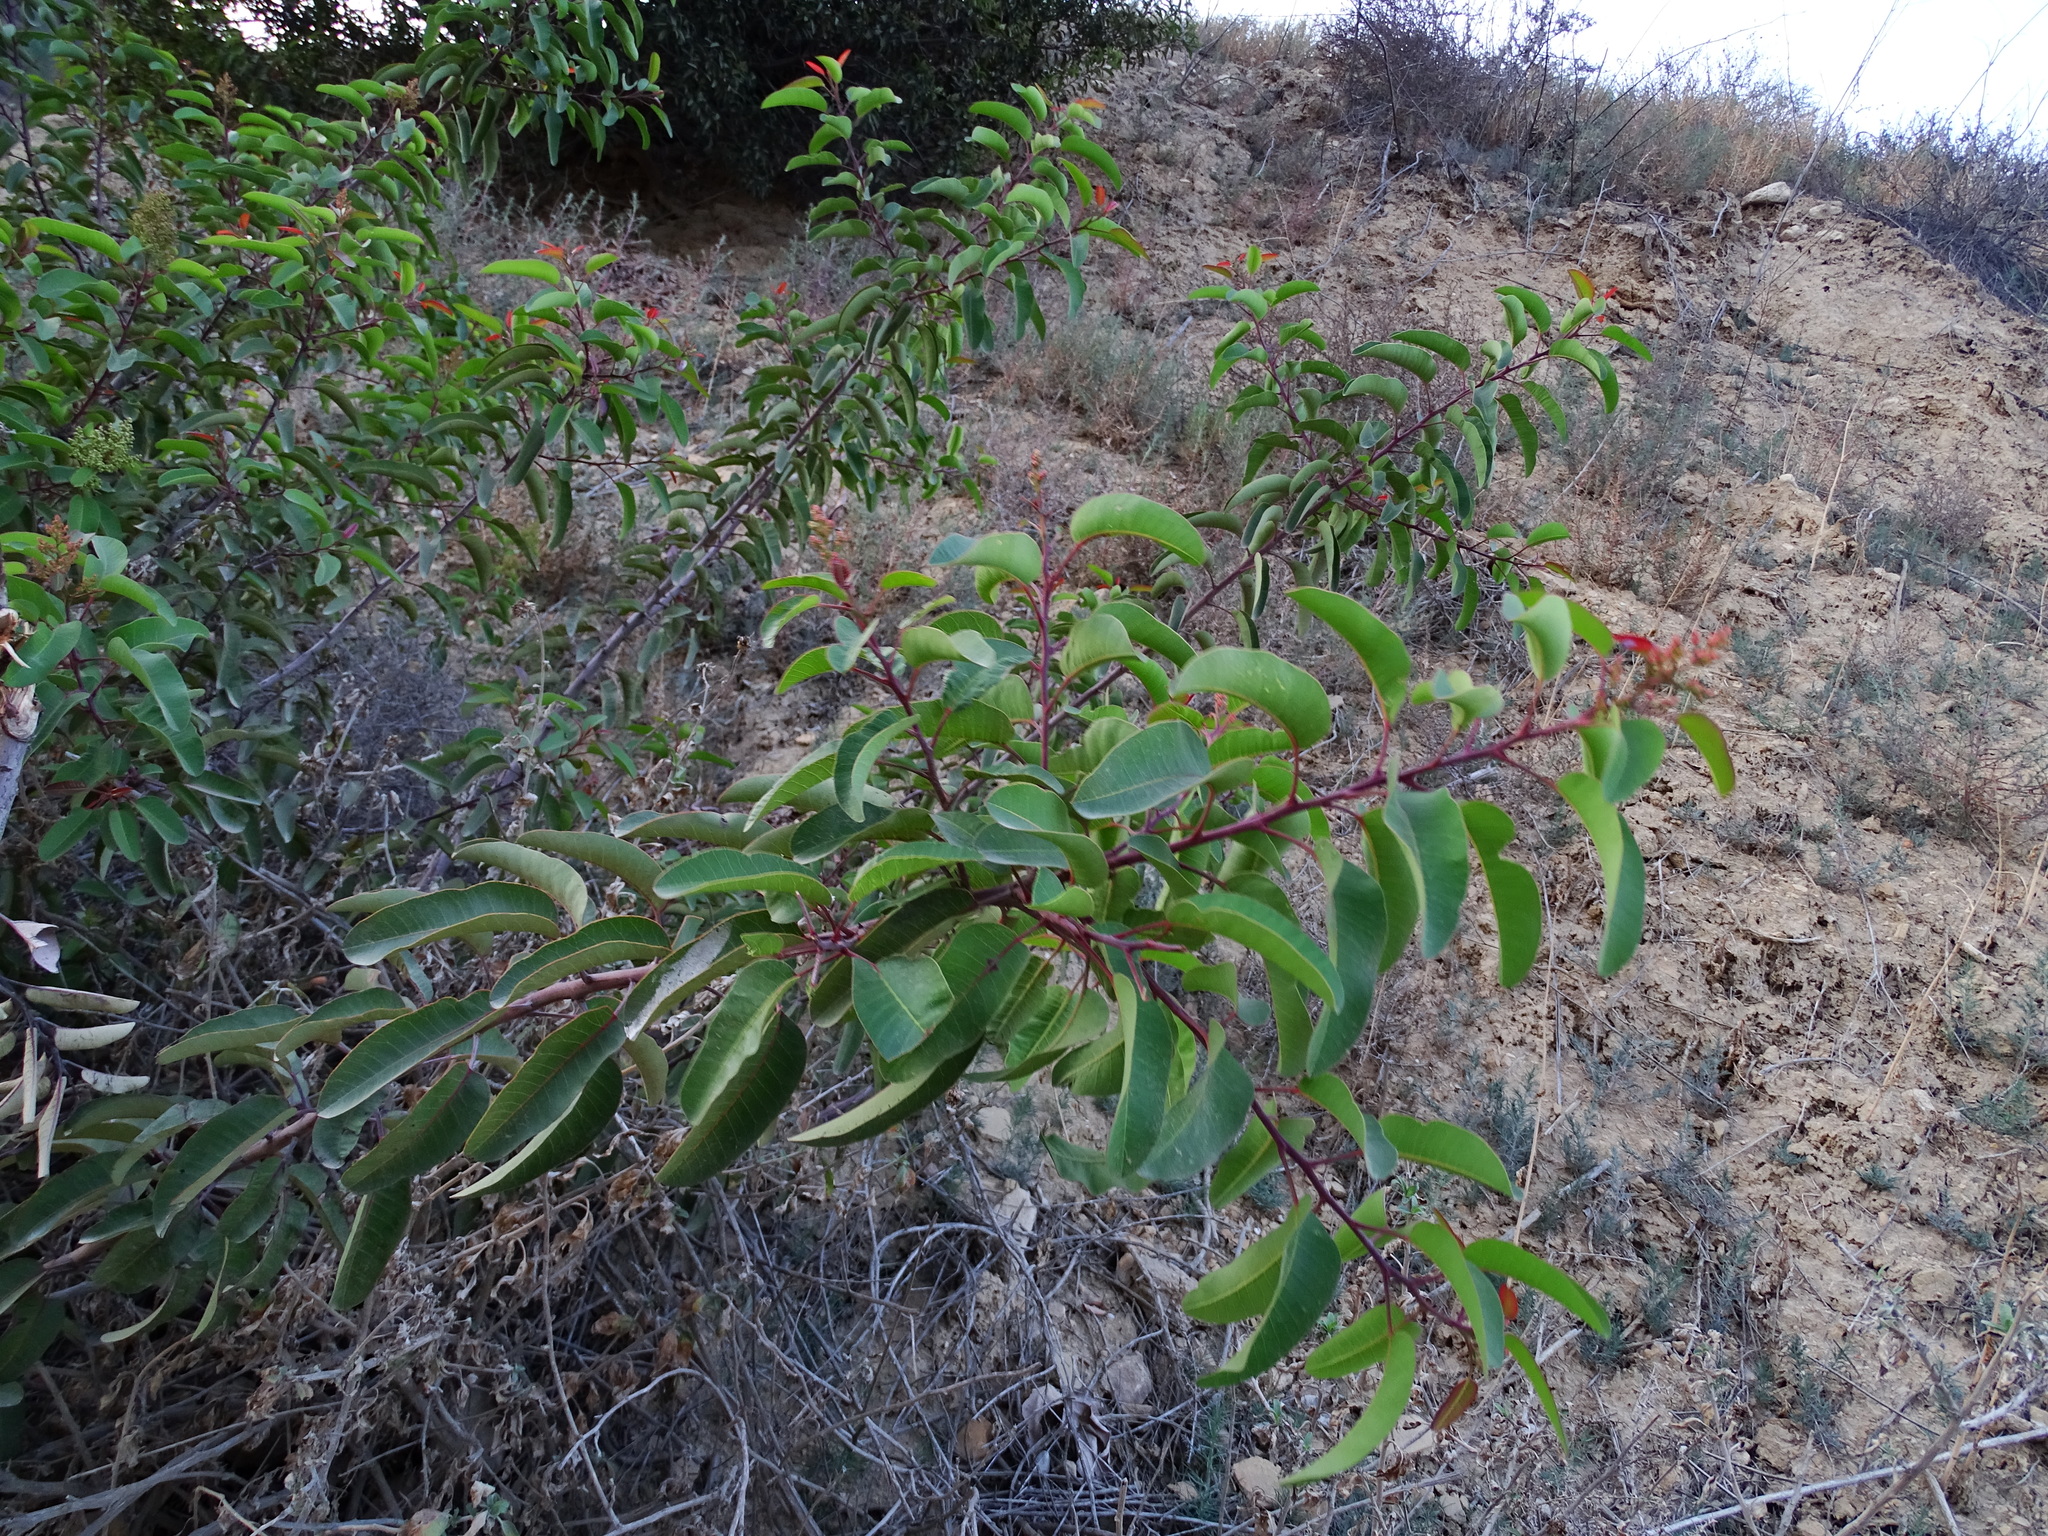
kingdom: Plantae
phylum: Tracheophyta
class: Magnoliopsida
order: Sapindales
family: Anacardiaceae
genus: Malosma
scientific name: Malosma laurina
